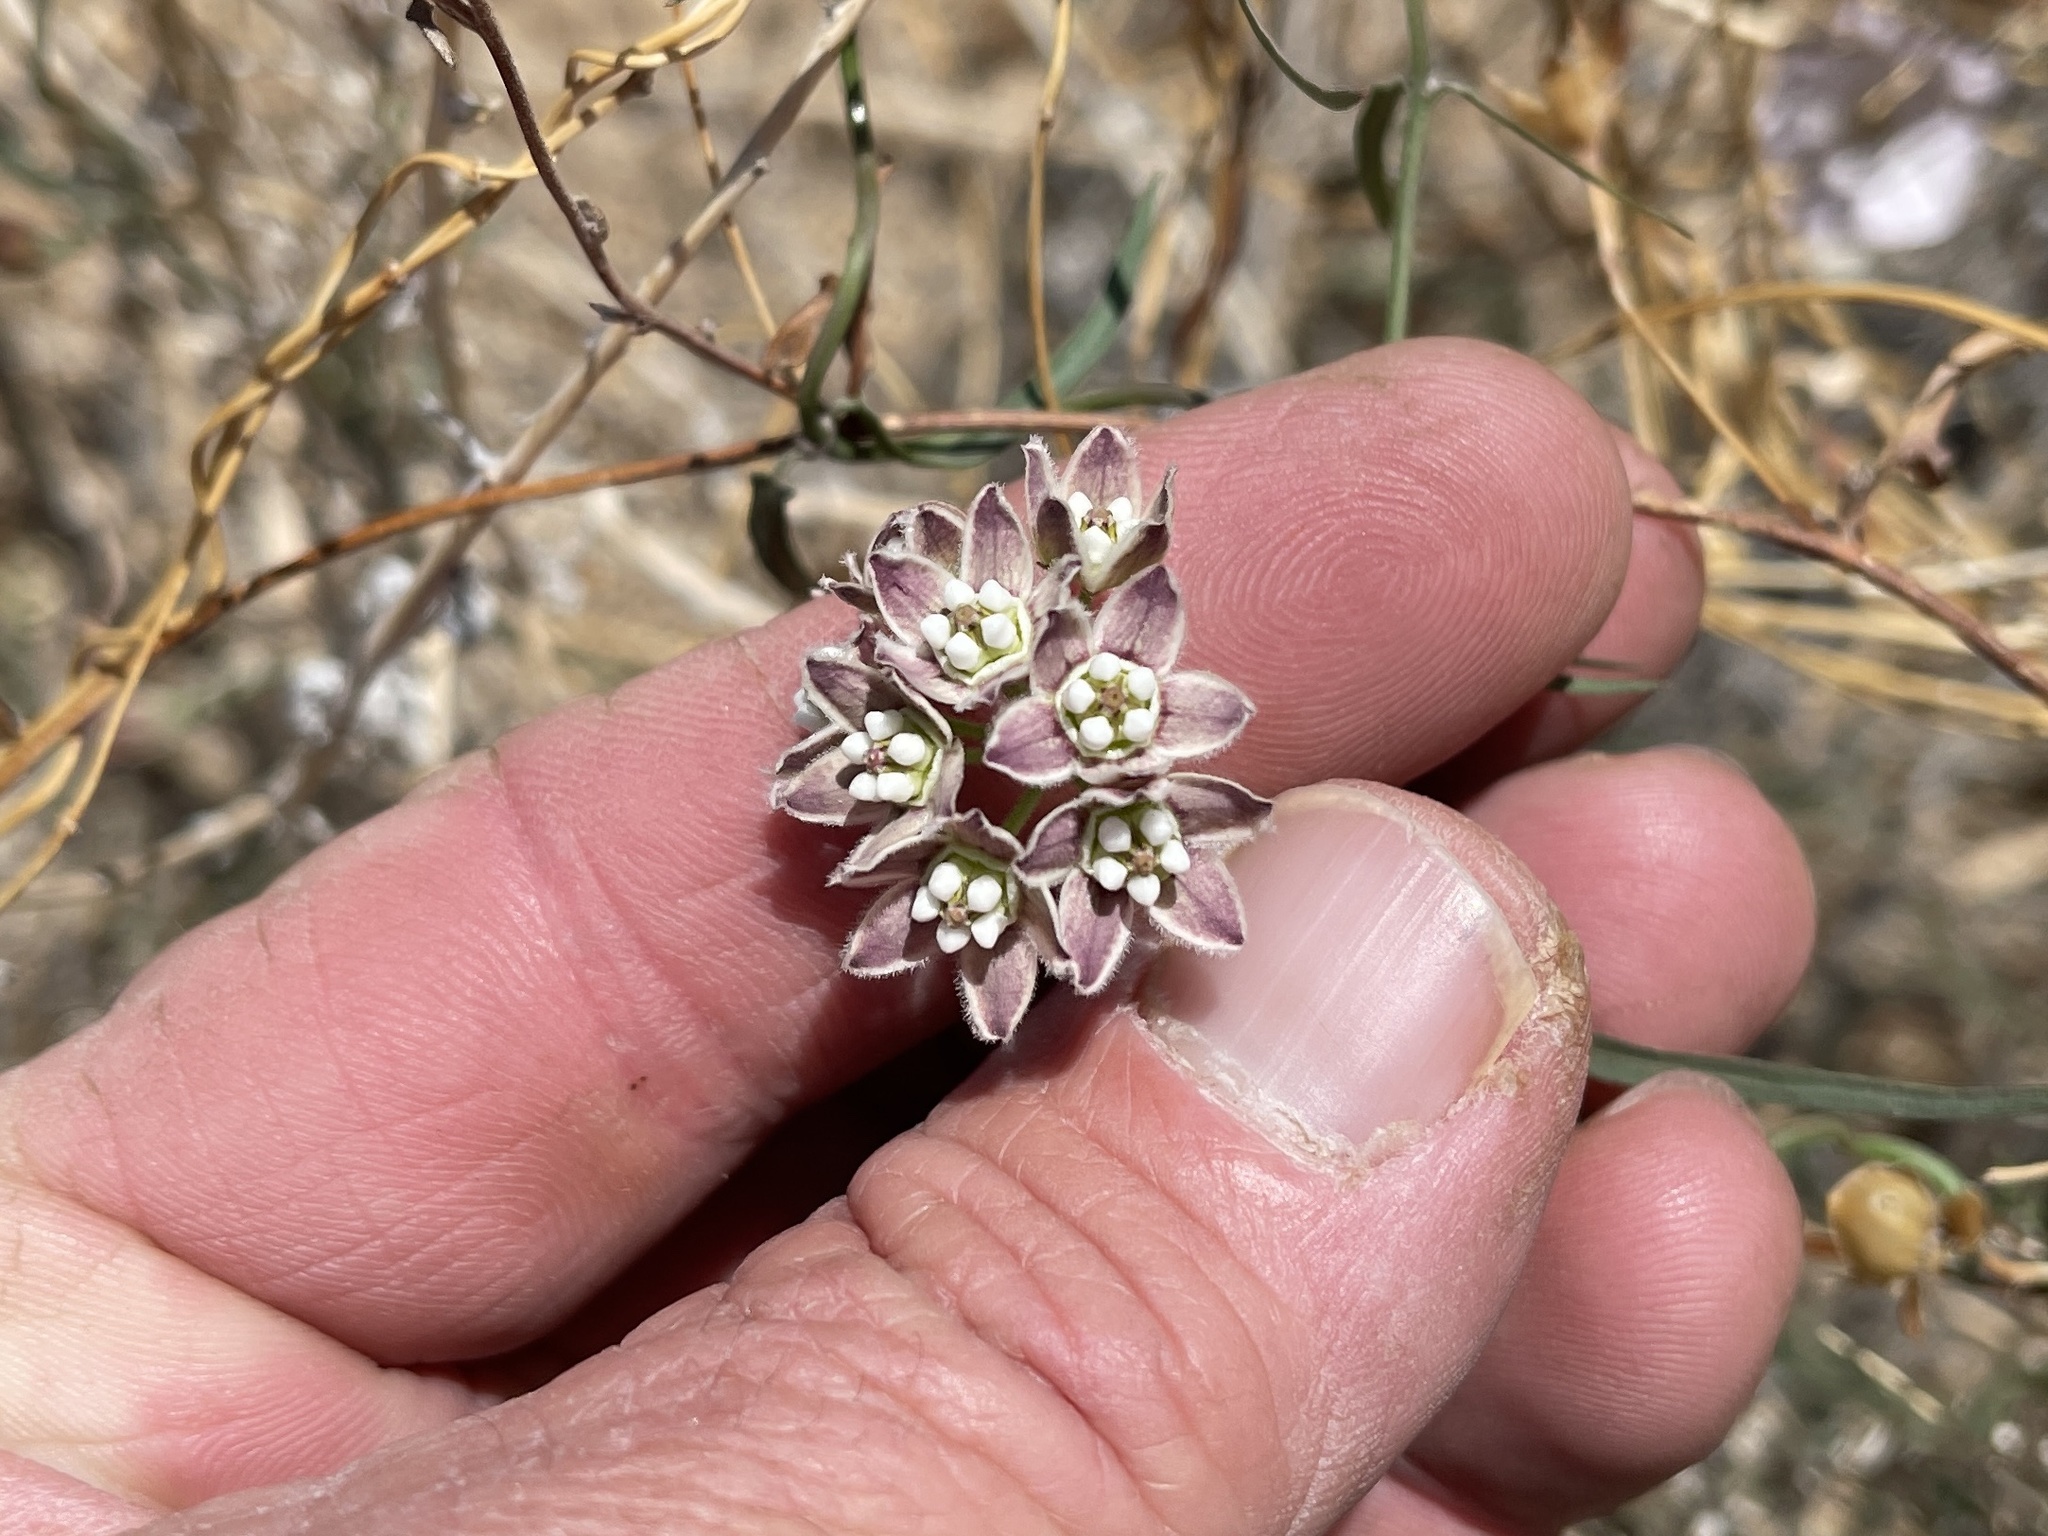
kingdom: Plantae
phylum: Tracheophyta
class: Magnoliopsida
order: Gentianales
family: Apocynaceae
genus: Funastrum
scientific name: Funastrum heterophyllum
